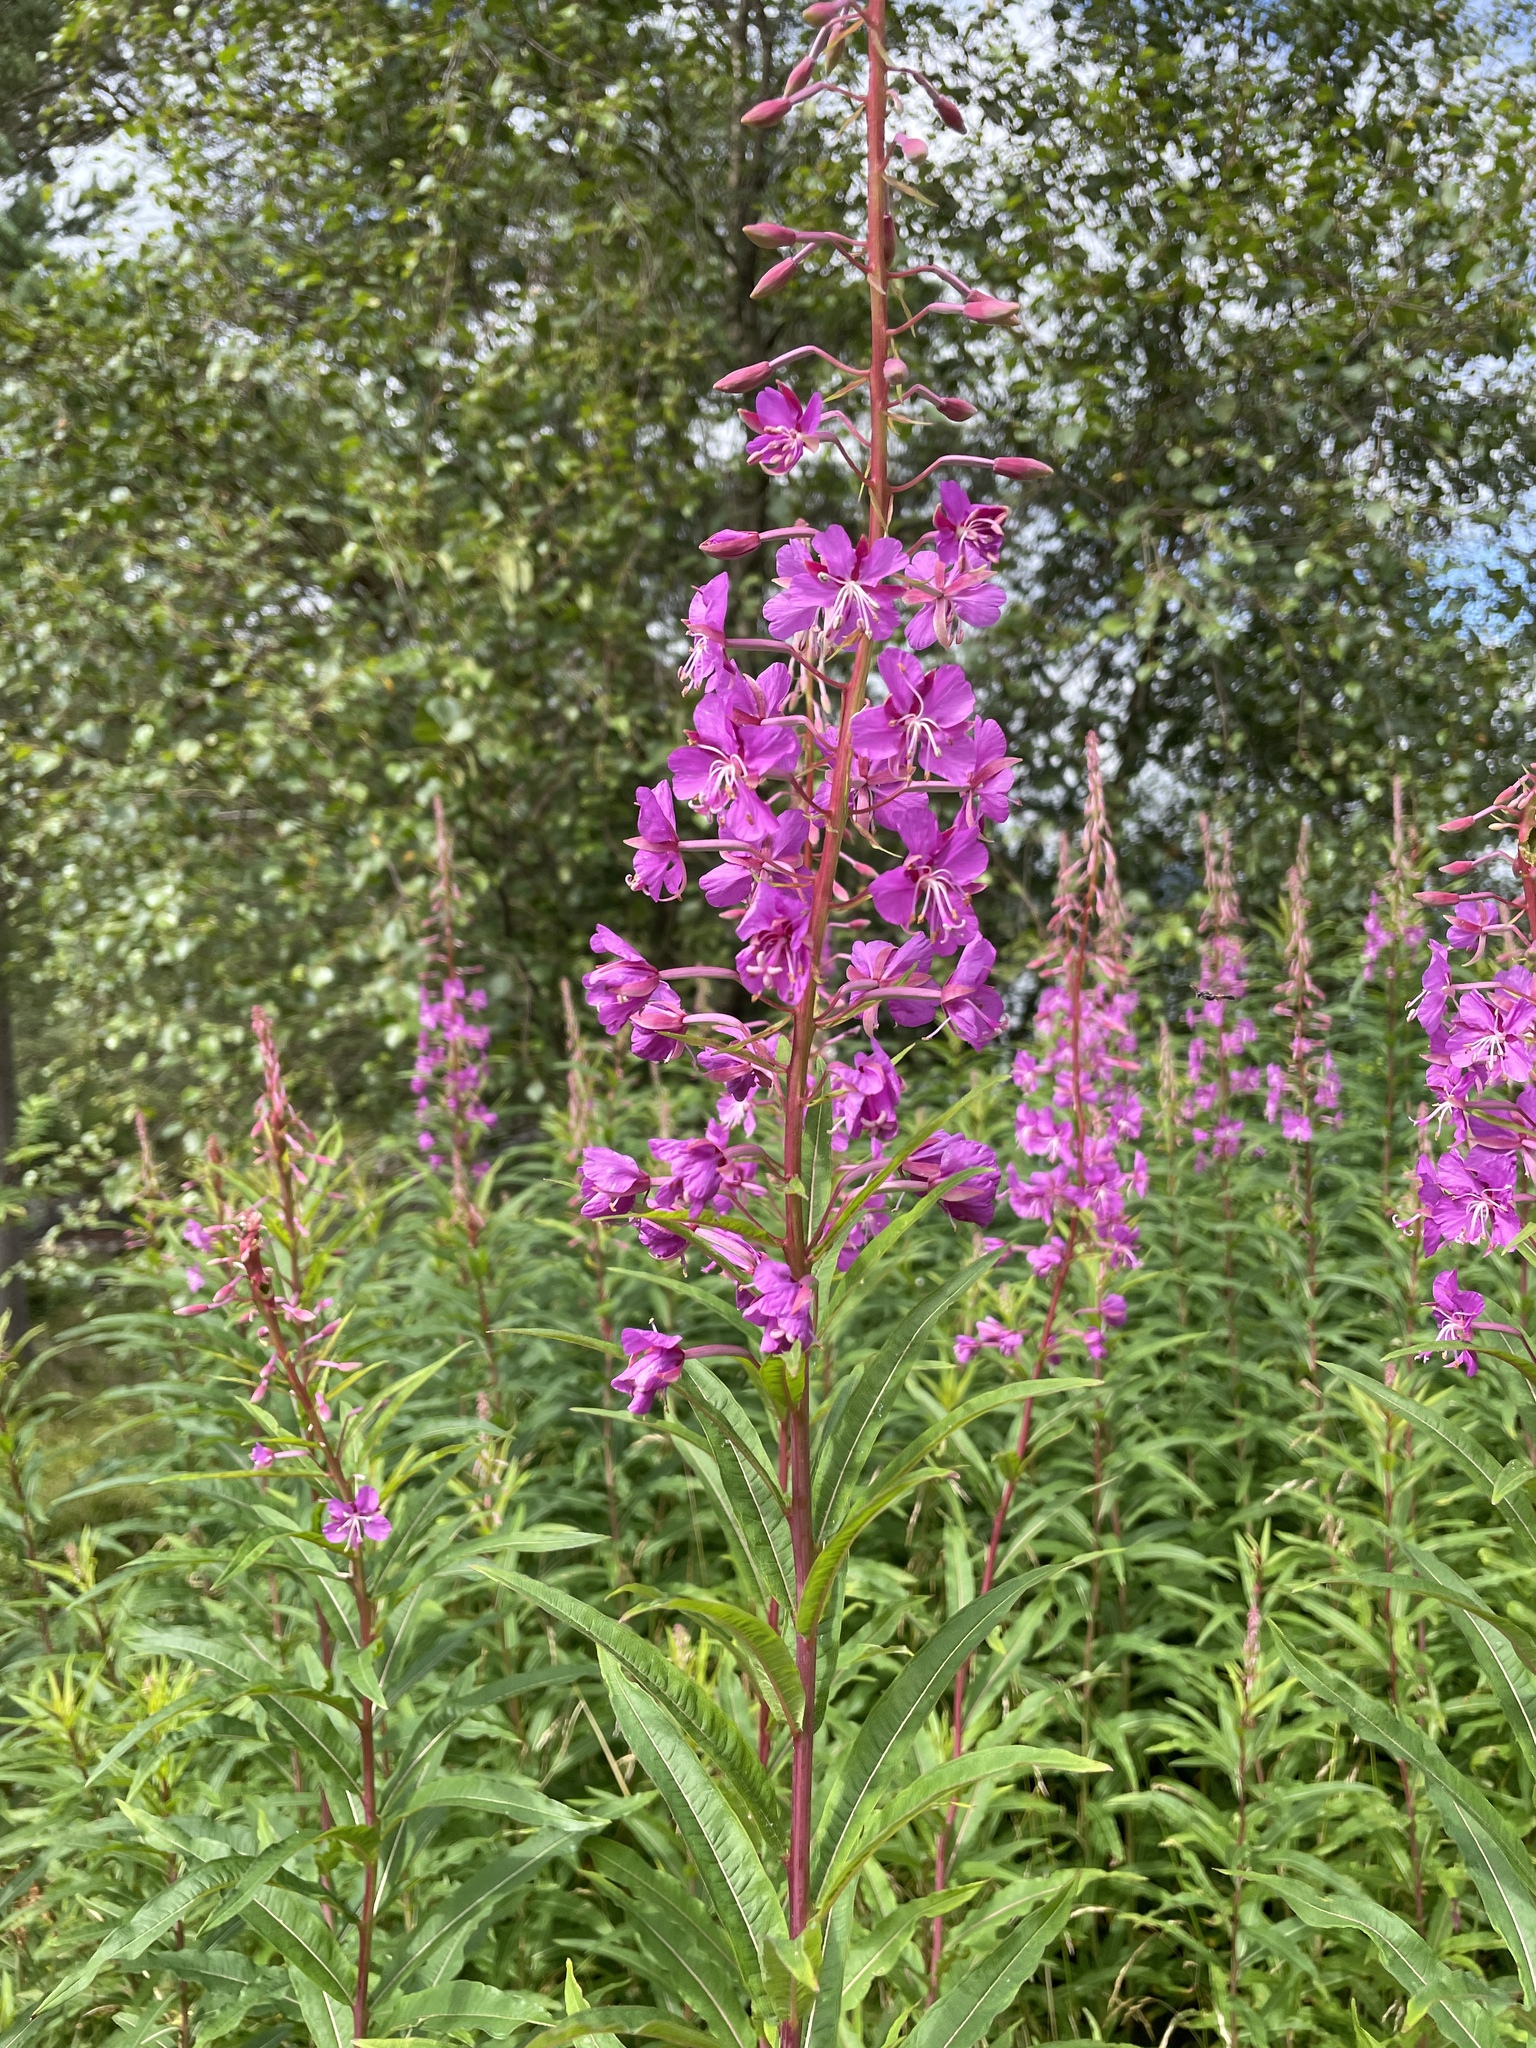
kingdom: Plantae
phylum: Tracheophyta
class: Magnoliopsida
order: Myrtales
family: Onagraceae
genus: Chamaenerion
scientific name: Chamaenerion angustifolium
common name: Fireweed
